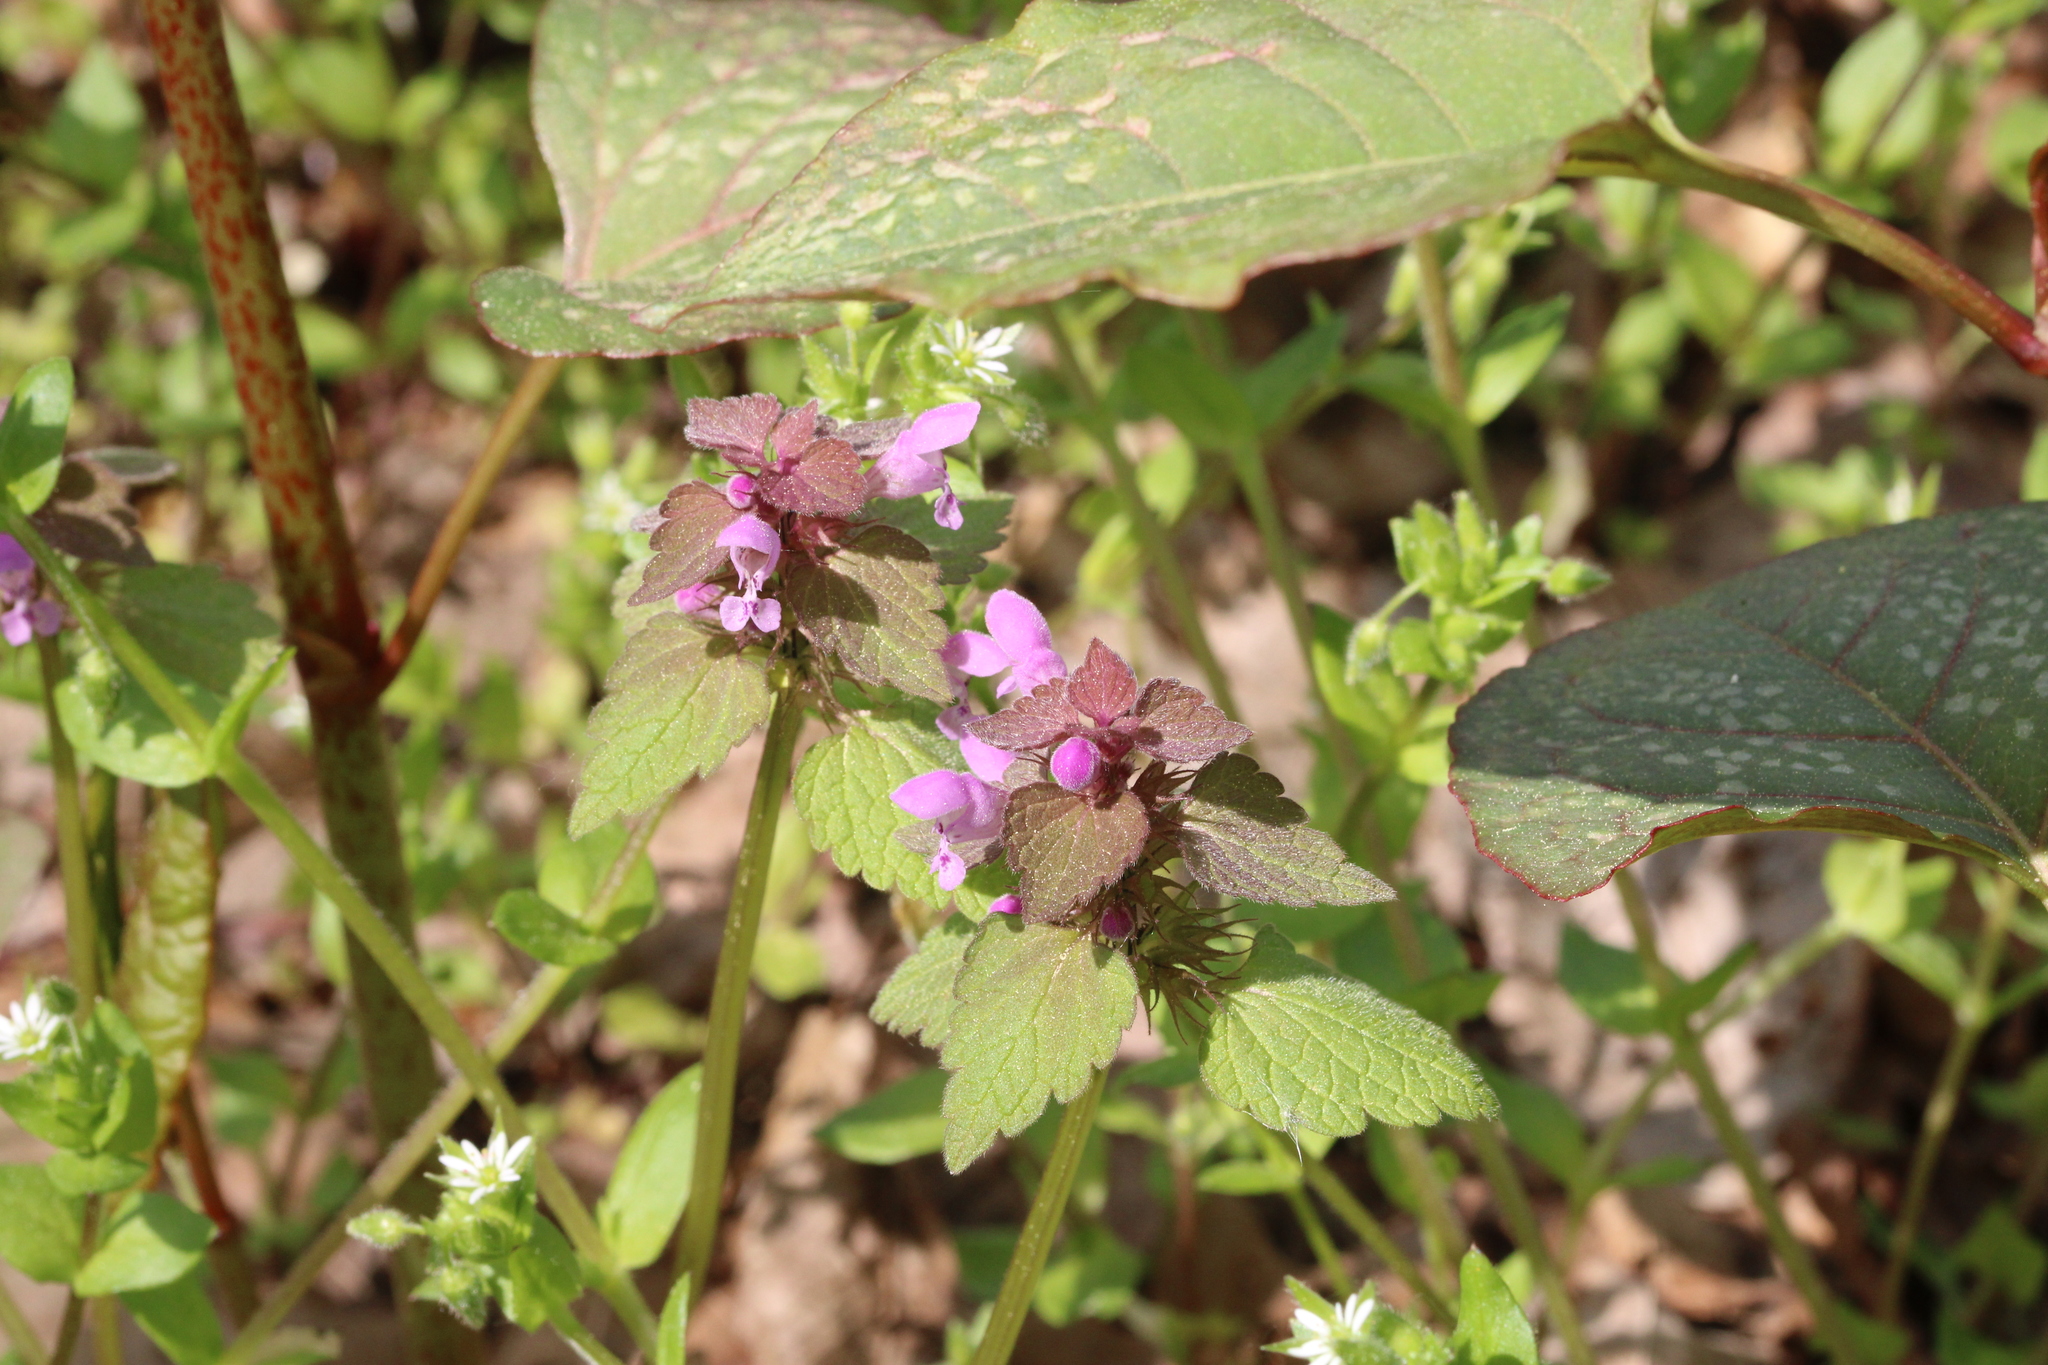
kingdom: Plantae
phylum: Tracheophyta
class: Magnoliopsida
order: Lamiales
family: Lamiaceae
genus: Lamium
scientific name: Lamium purpureum
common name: Red dead-nettle
